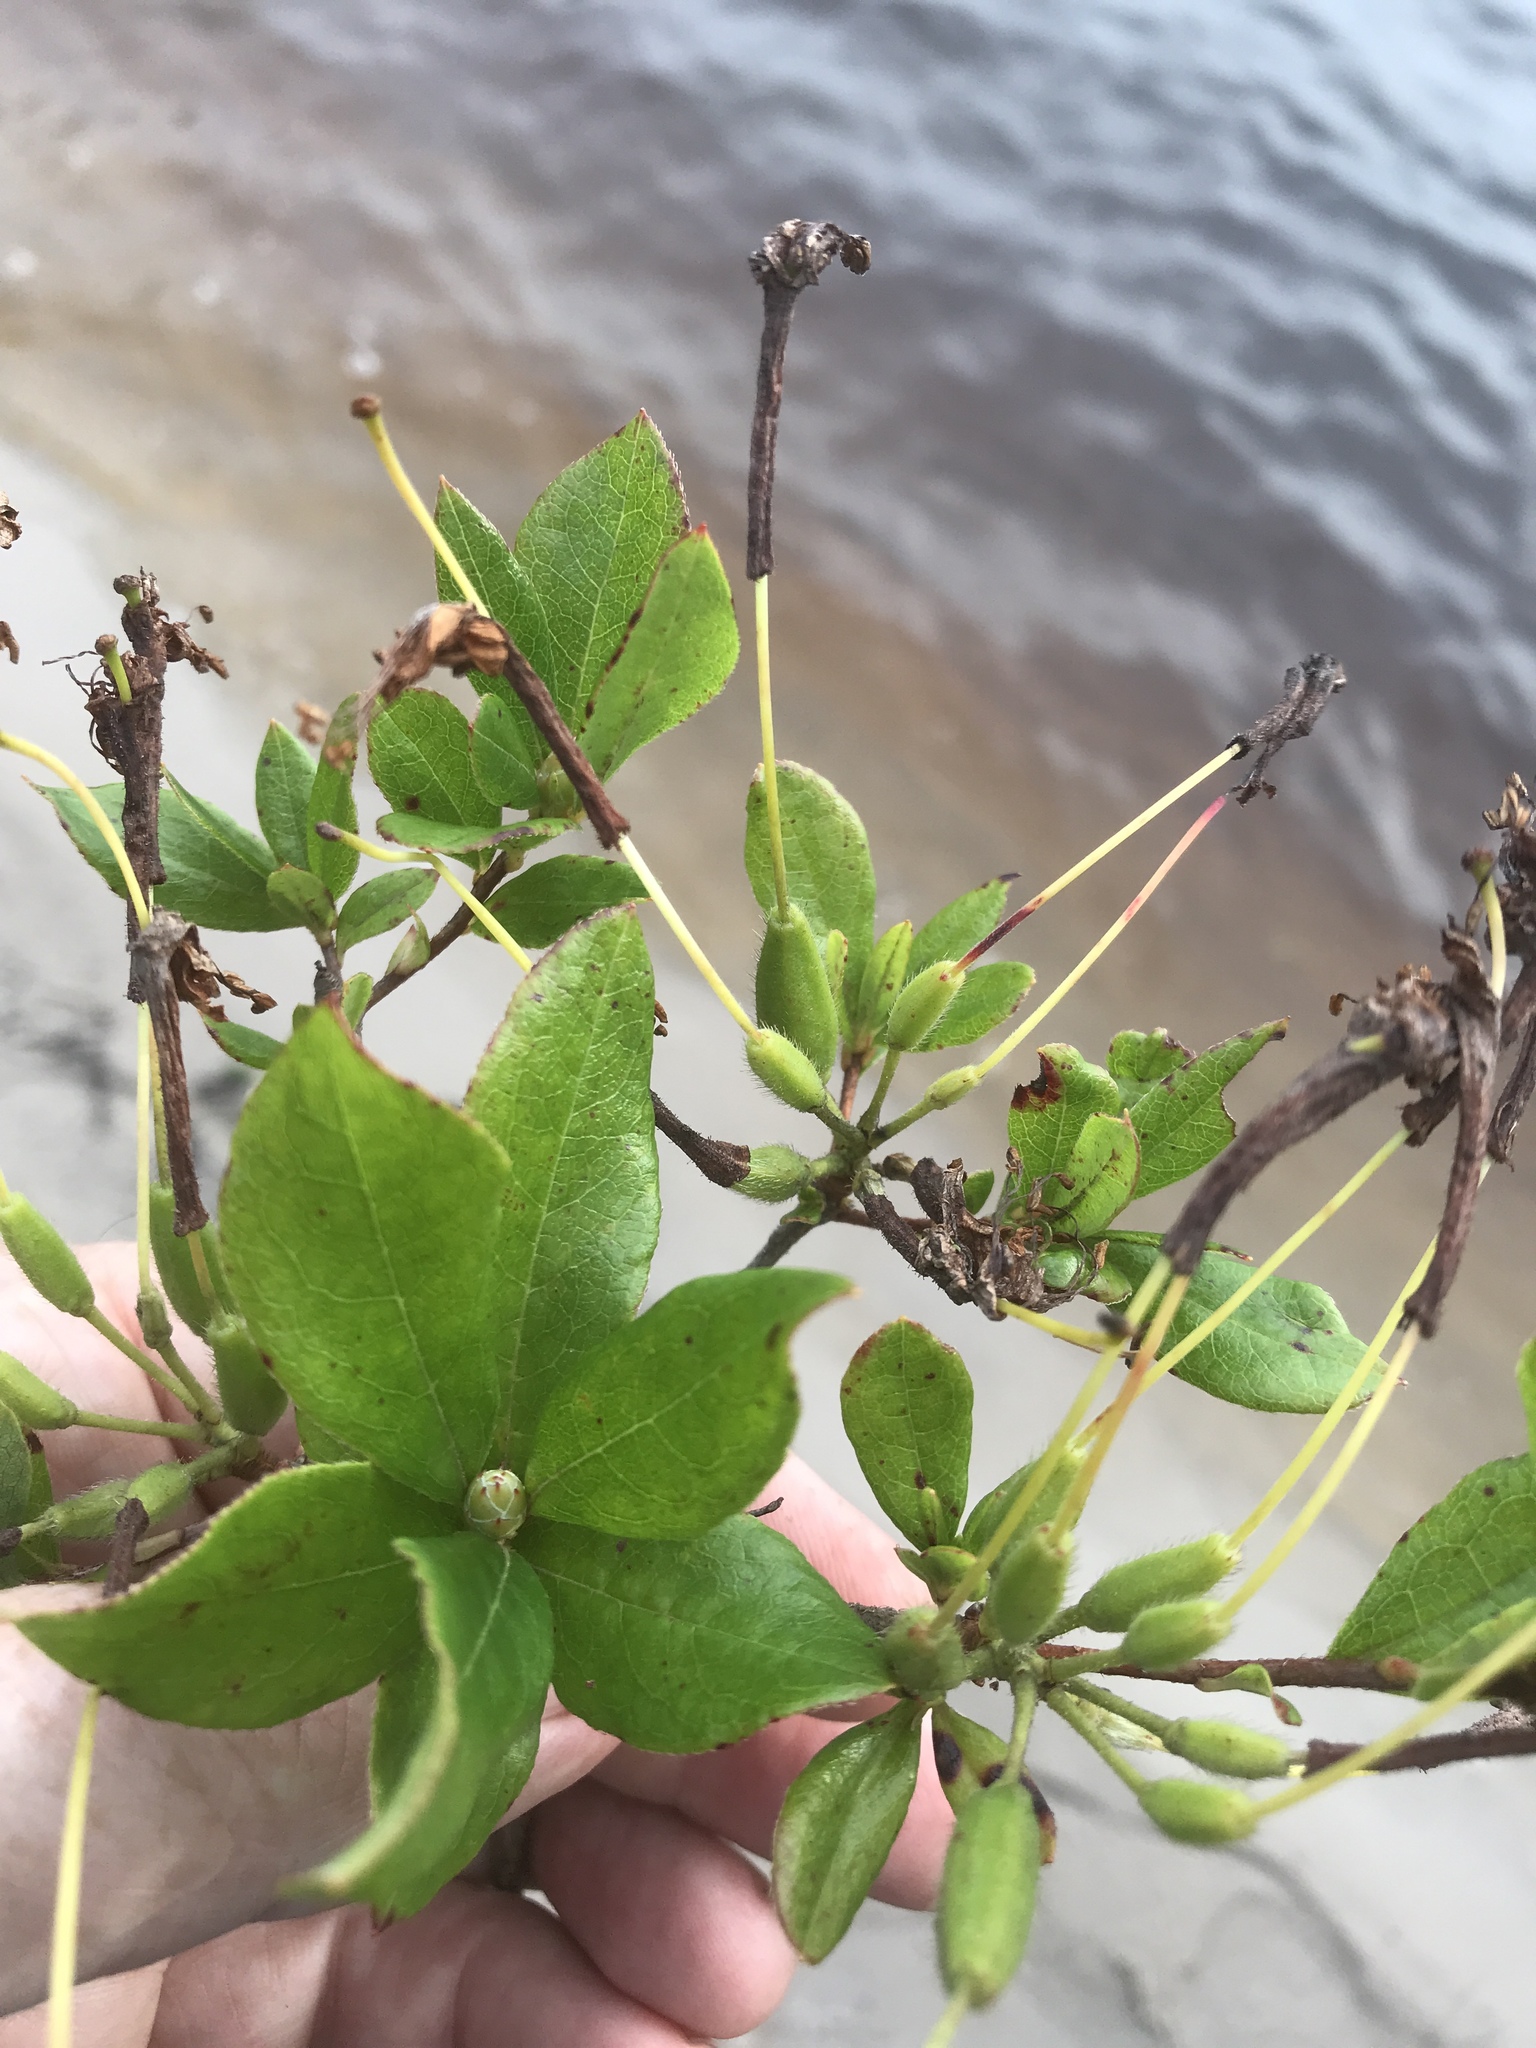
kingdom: Plantae
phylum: Tracheophyta
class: Magnoliopsida
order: Ericales
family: Ericaceae
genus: Rhododendron
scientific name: Rhododendron viscosum
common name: Clammy azalea
